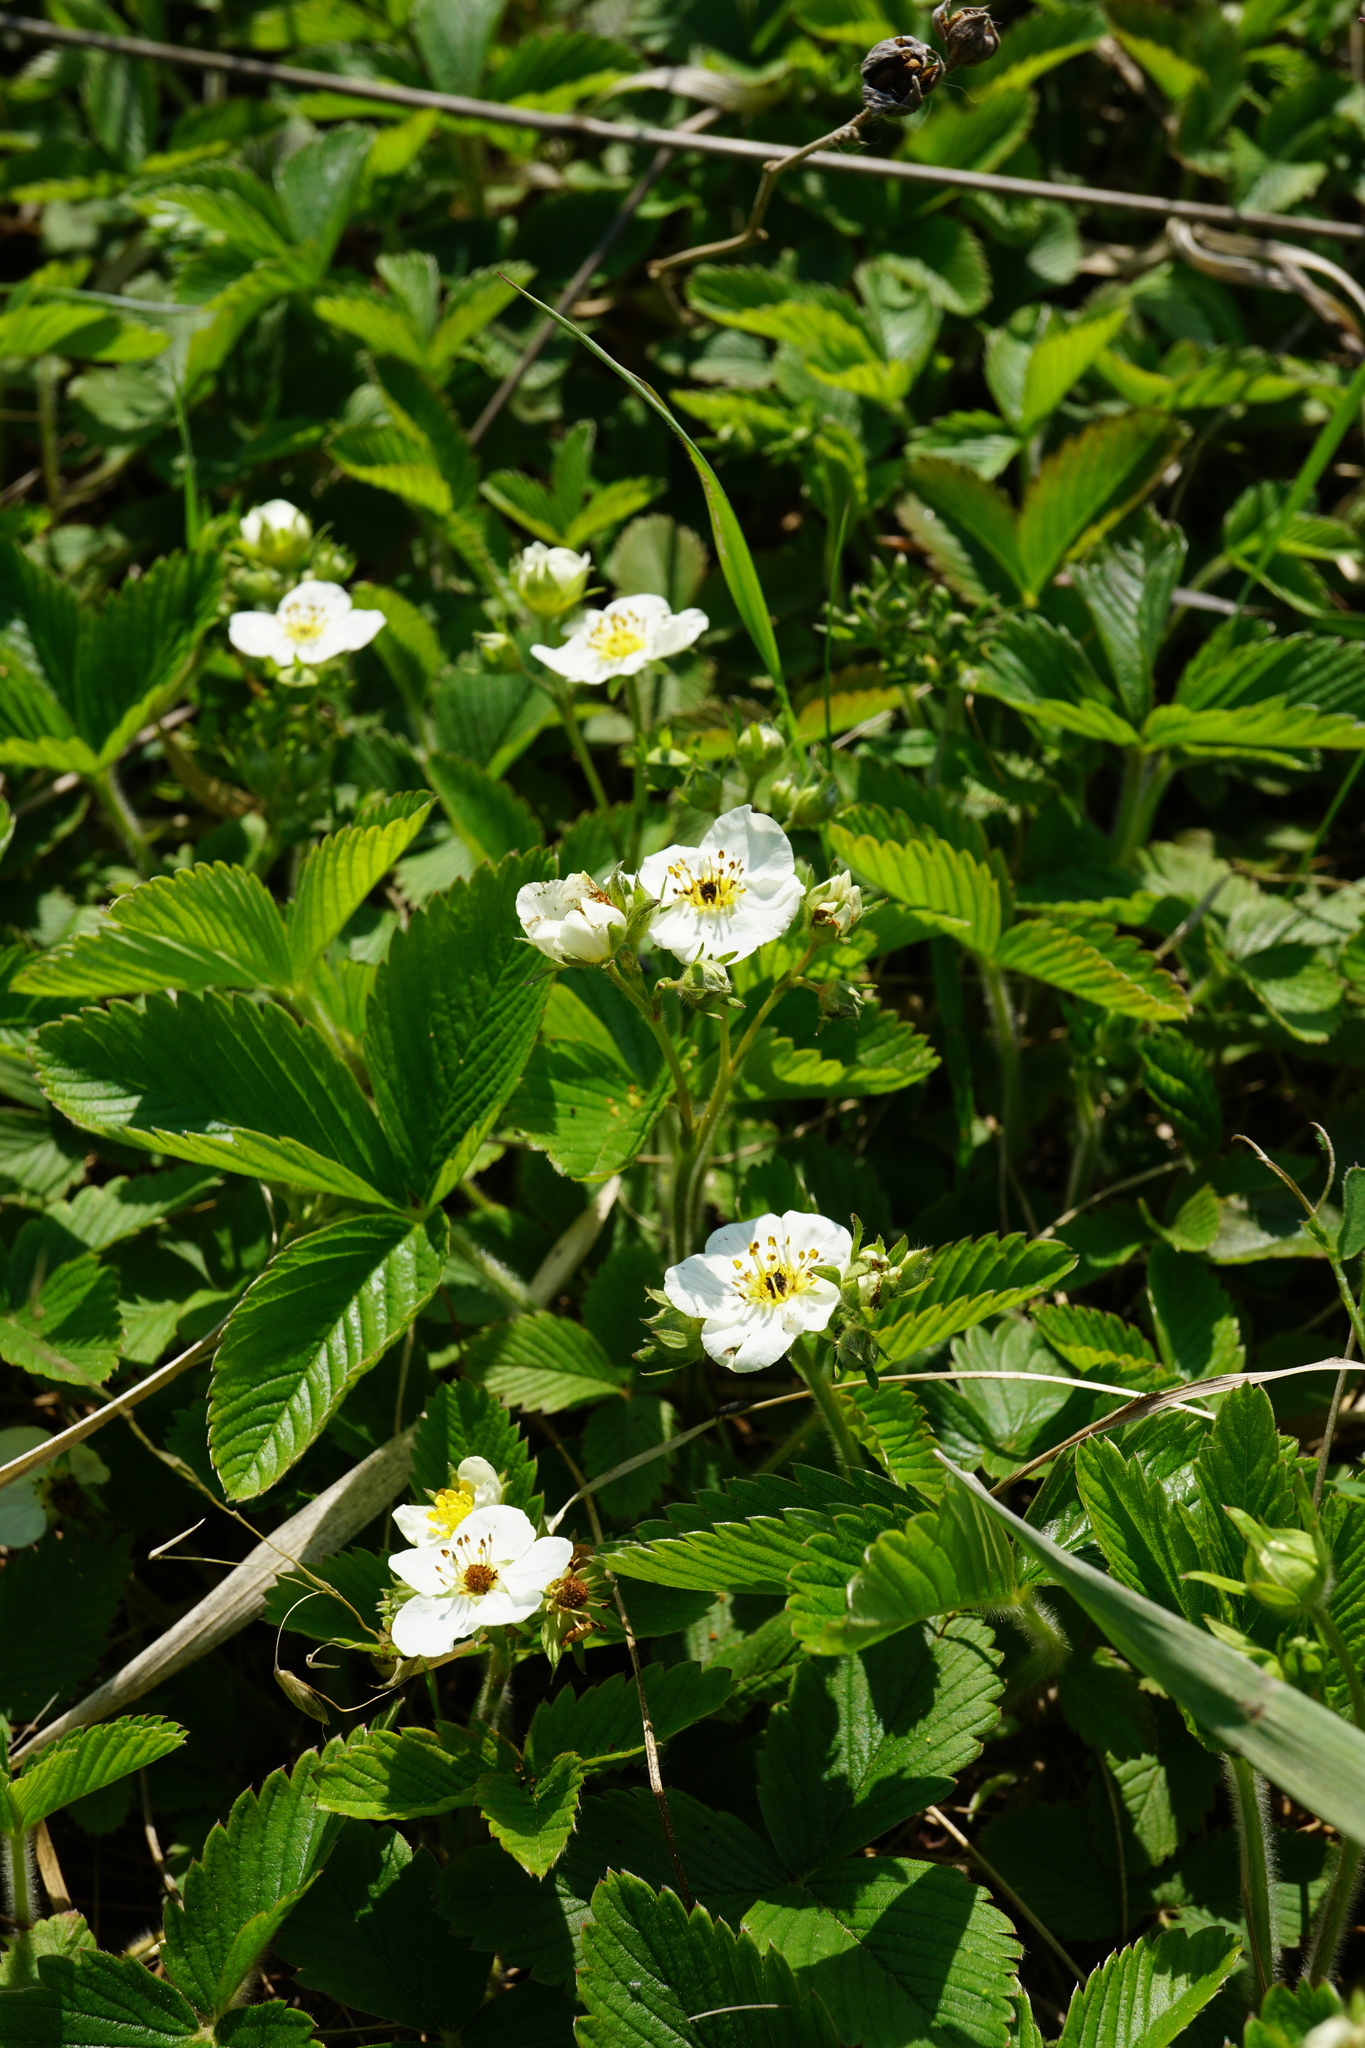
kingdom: Plantae
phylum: Tracheophyta
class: Magnoliopsida
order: Rosales
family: Rosaceae
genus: Fragaria
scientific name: Fragaria viridis
